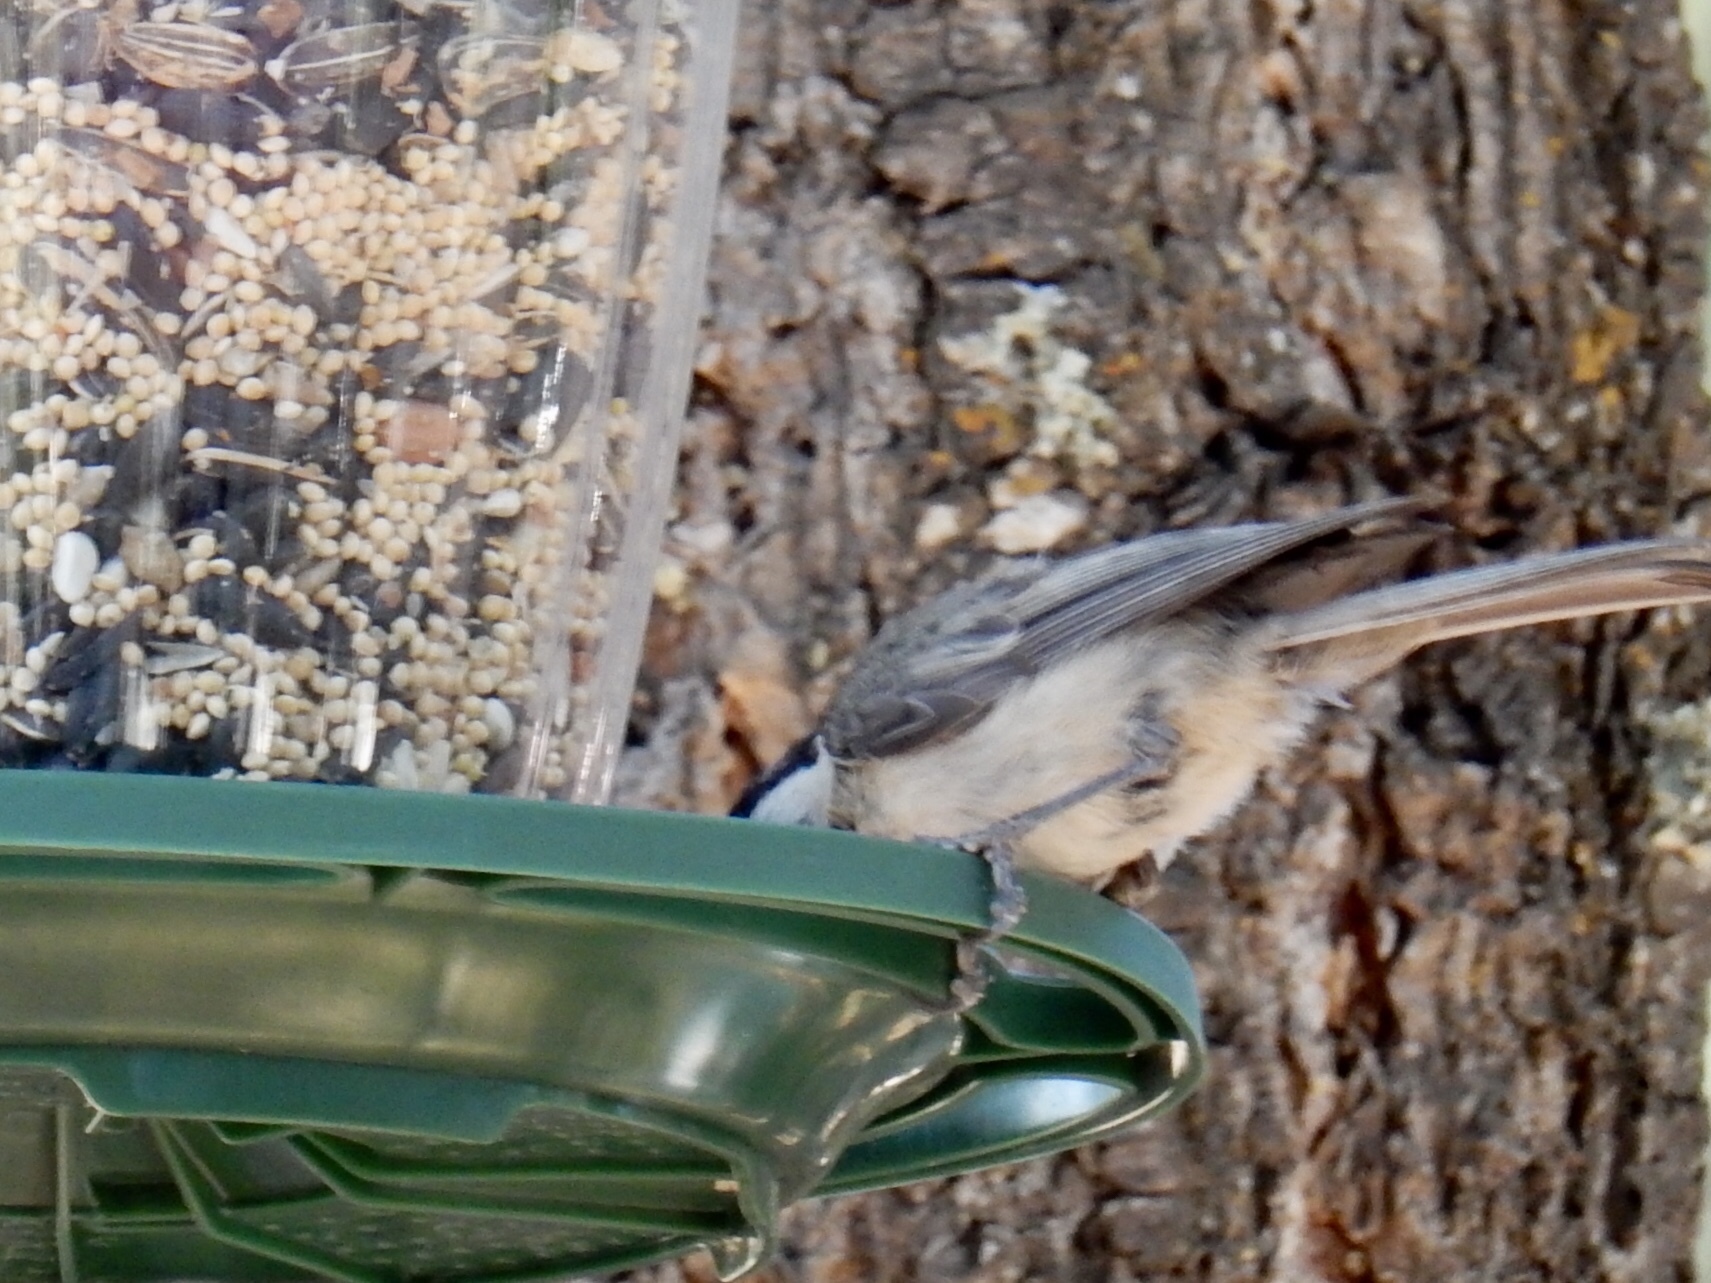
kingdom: Animalia
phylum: Chordata
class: Aves
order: Passeriformes
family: Paridae
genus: Poecile
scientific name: Poecile gambeli
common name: Mountain chickadee
